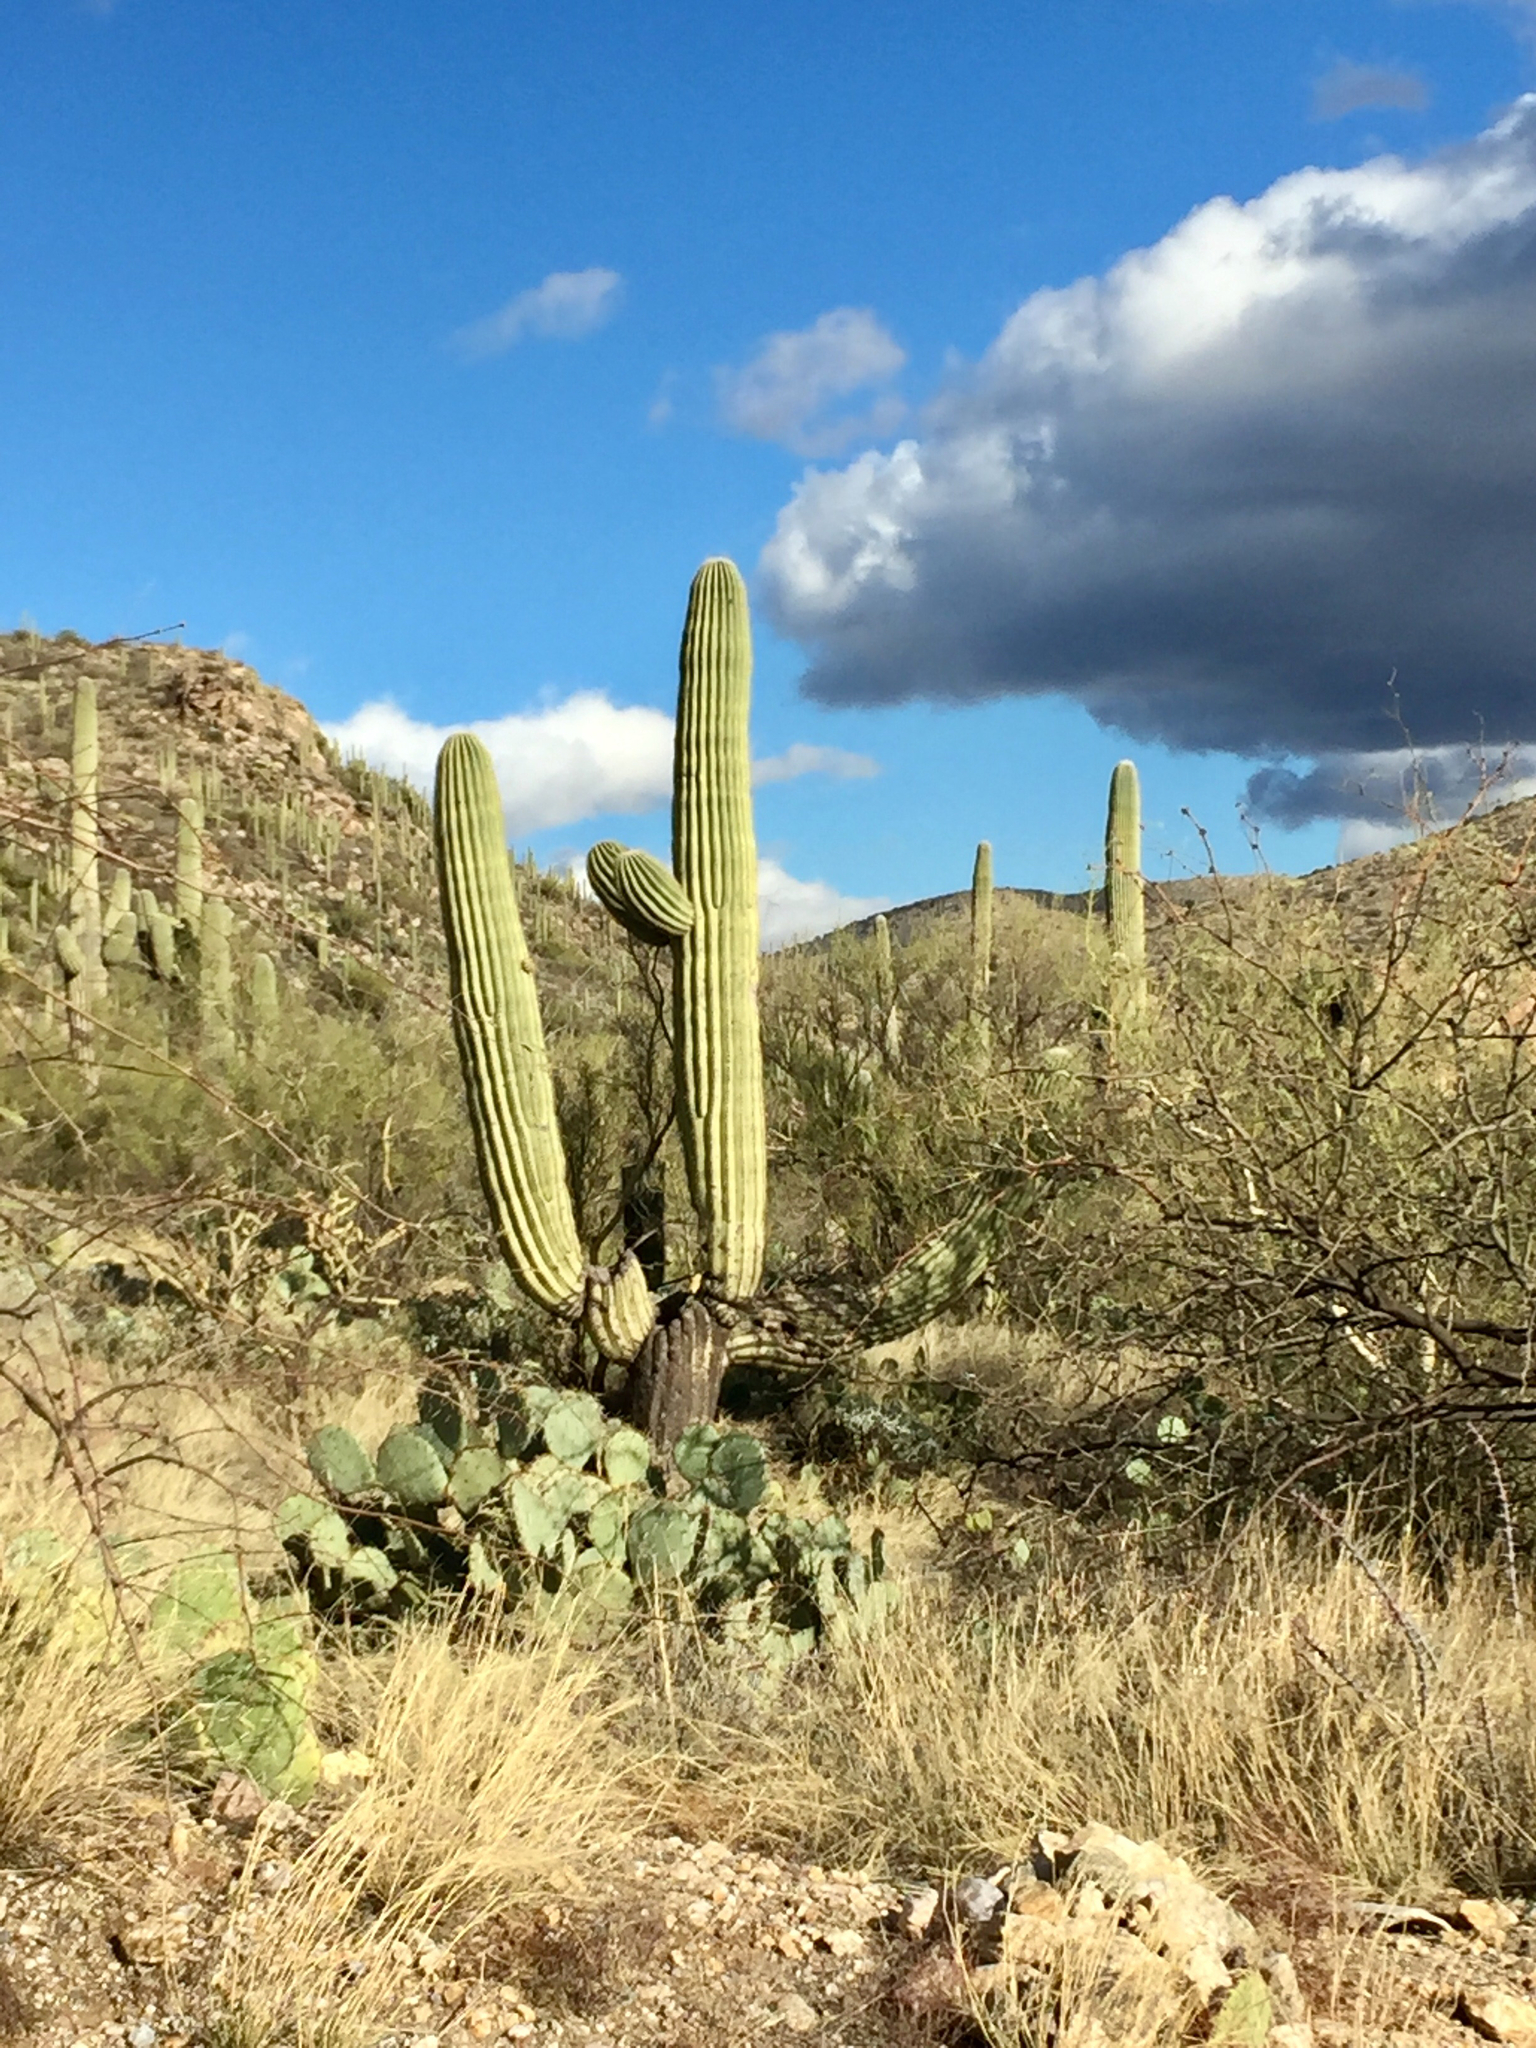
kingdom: Plantae
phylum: Tracheophyta
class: Magnoliopsida
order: Caryophyllales
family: Cactaceae
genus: Carnegiea
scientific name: Carnegiea gigantea
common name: Saguaro
